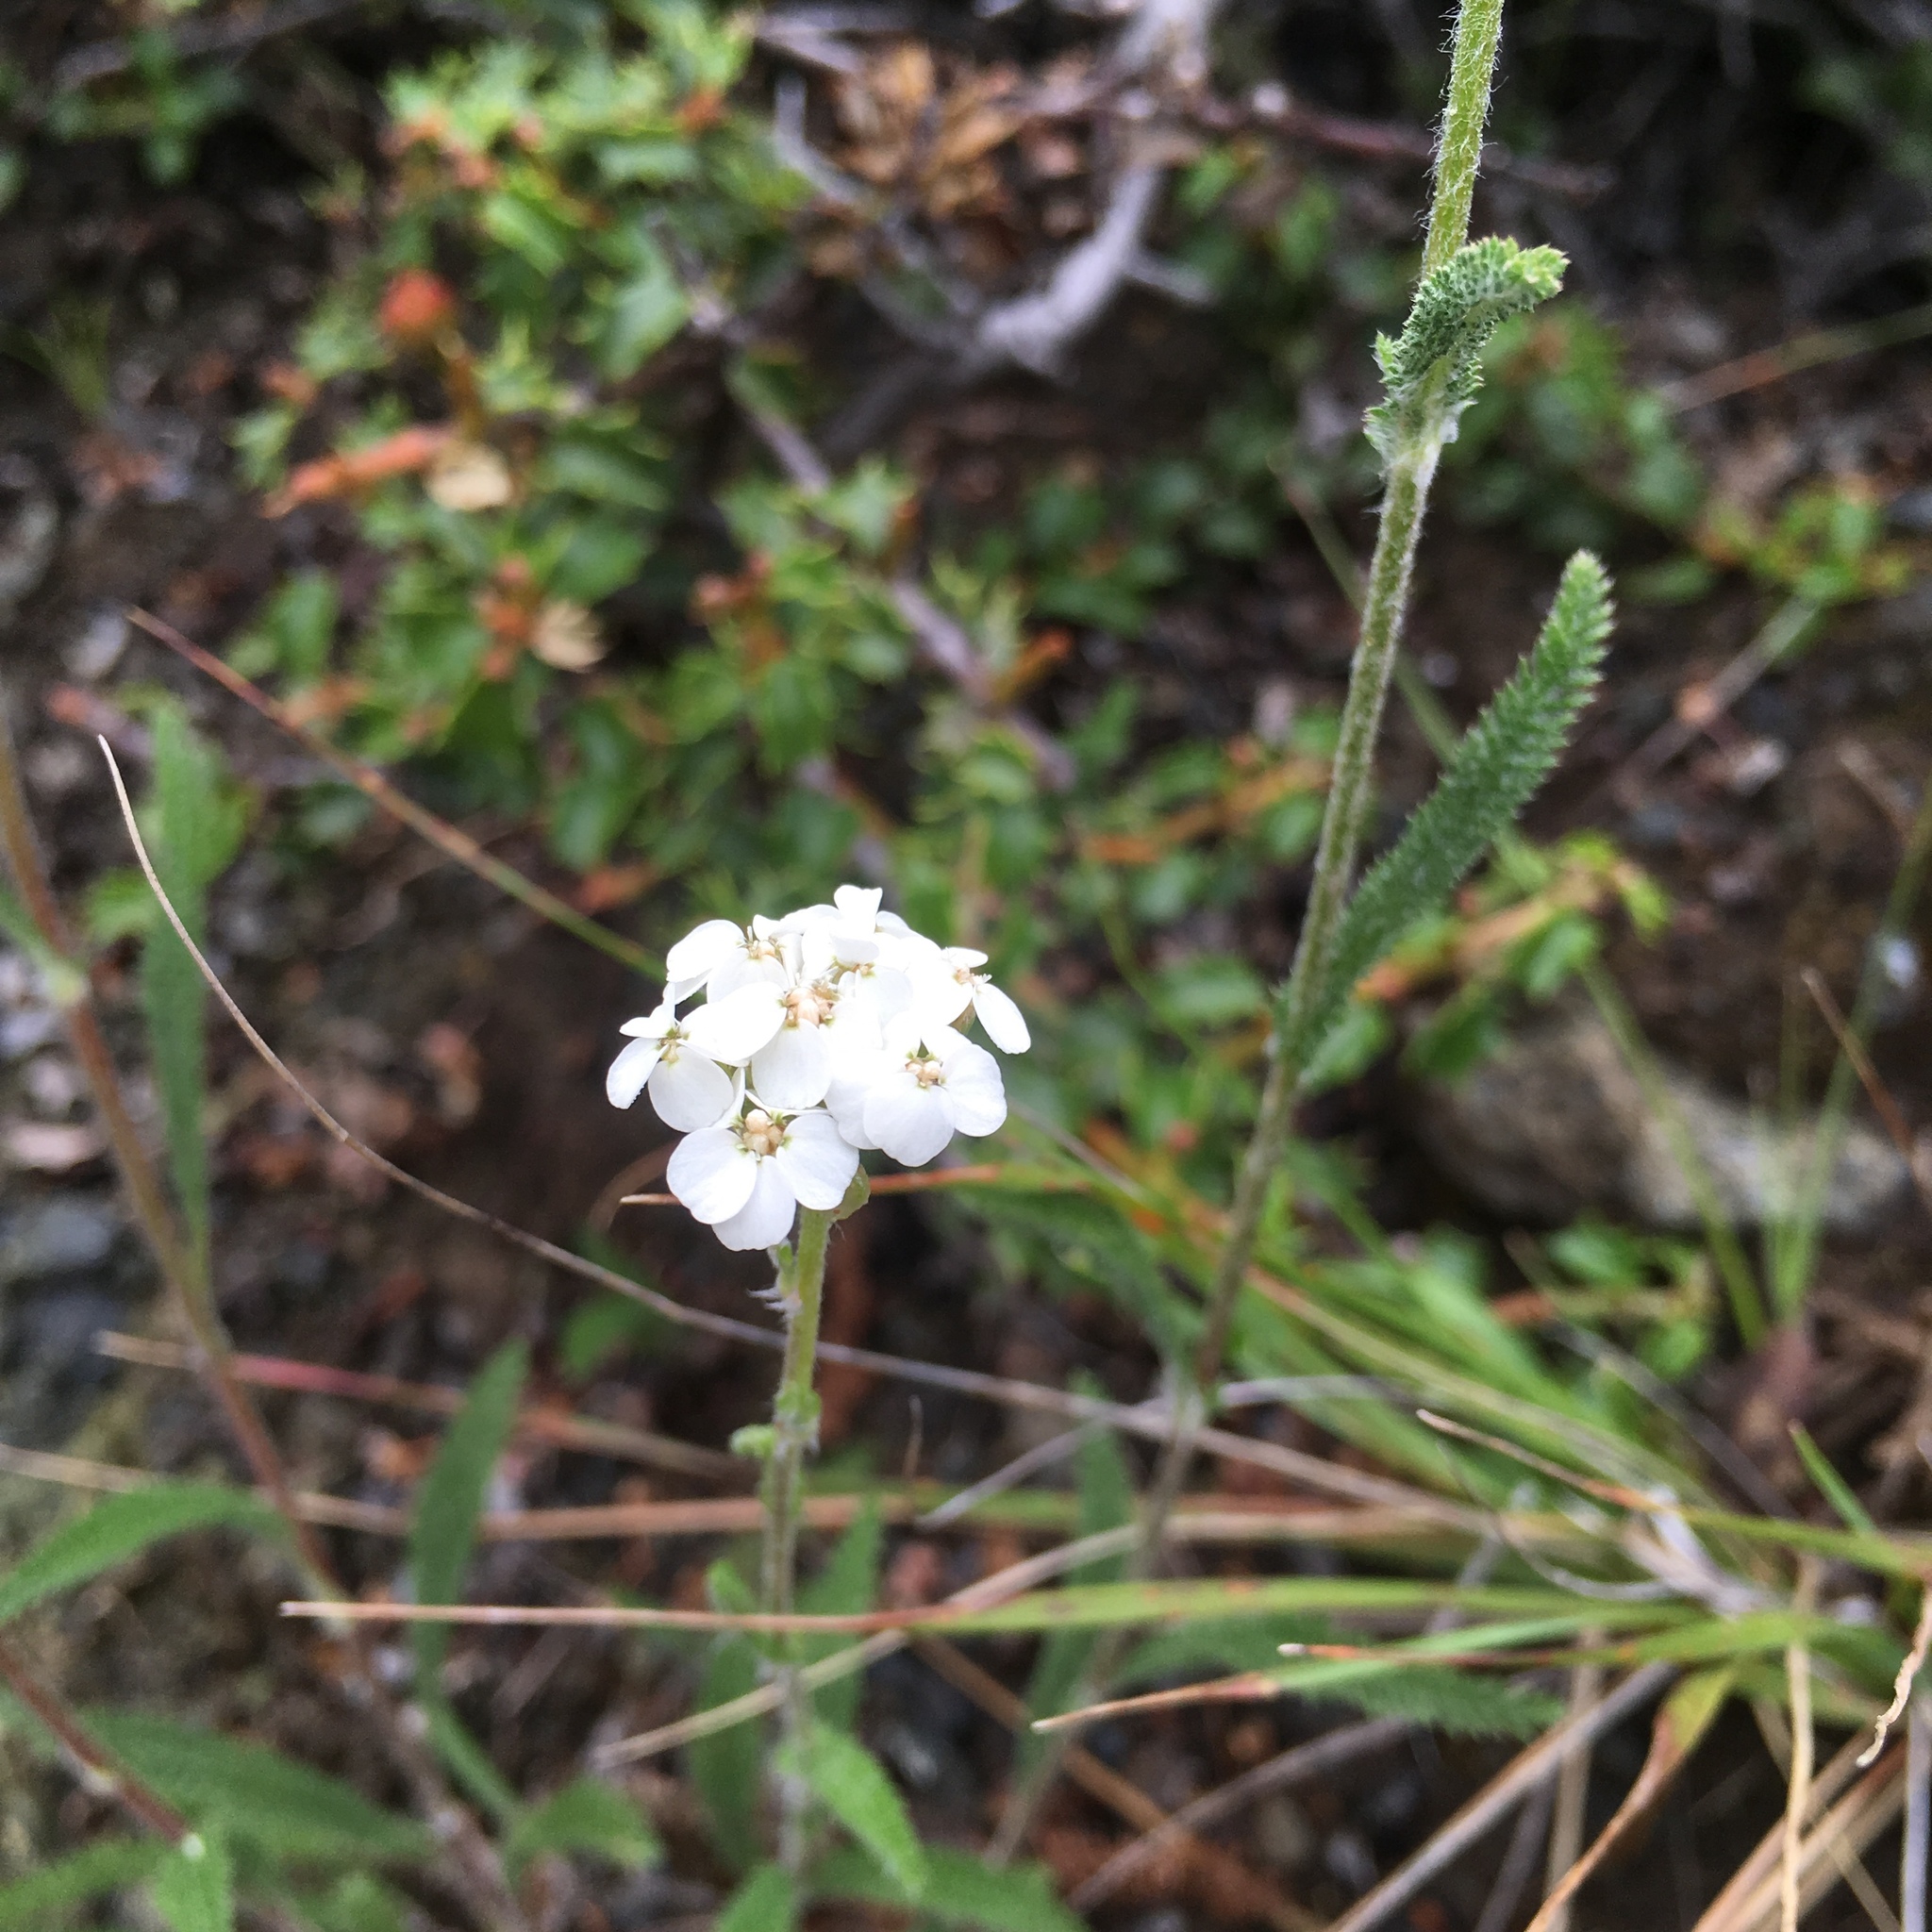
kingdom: Plantae
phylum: Tracheophyta
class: Magnoliopsida
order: Asterales
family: Asteraceae
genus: Achillea
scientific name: Achillea millefolium
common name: Yarrow
